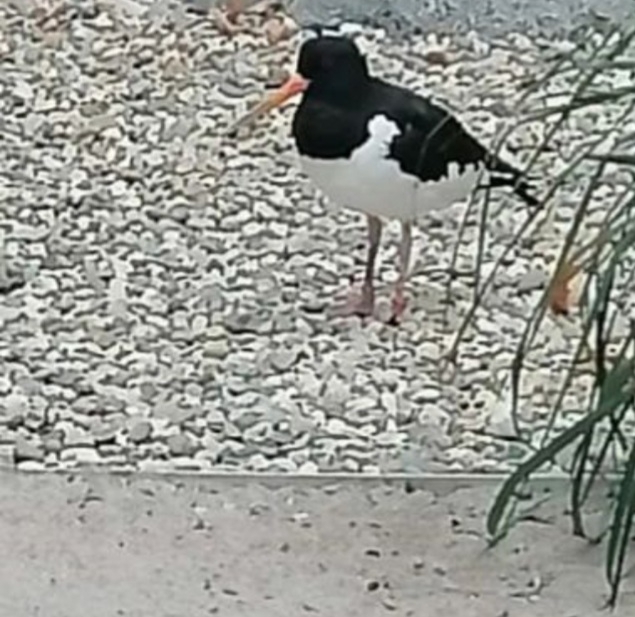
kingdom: Animalia
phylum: Chordata
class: Aves
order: Charadriiformes
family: Haematopodidae
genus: Haematopus
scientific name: Haematopus ostralegus
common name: Eurasian oystercatcher
